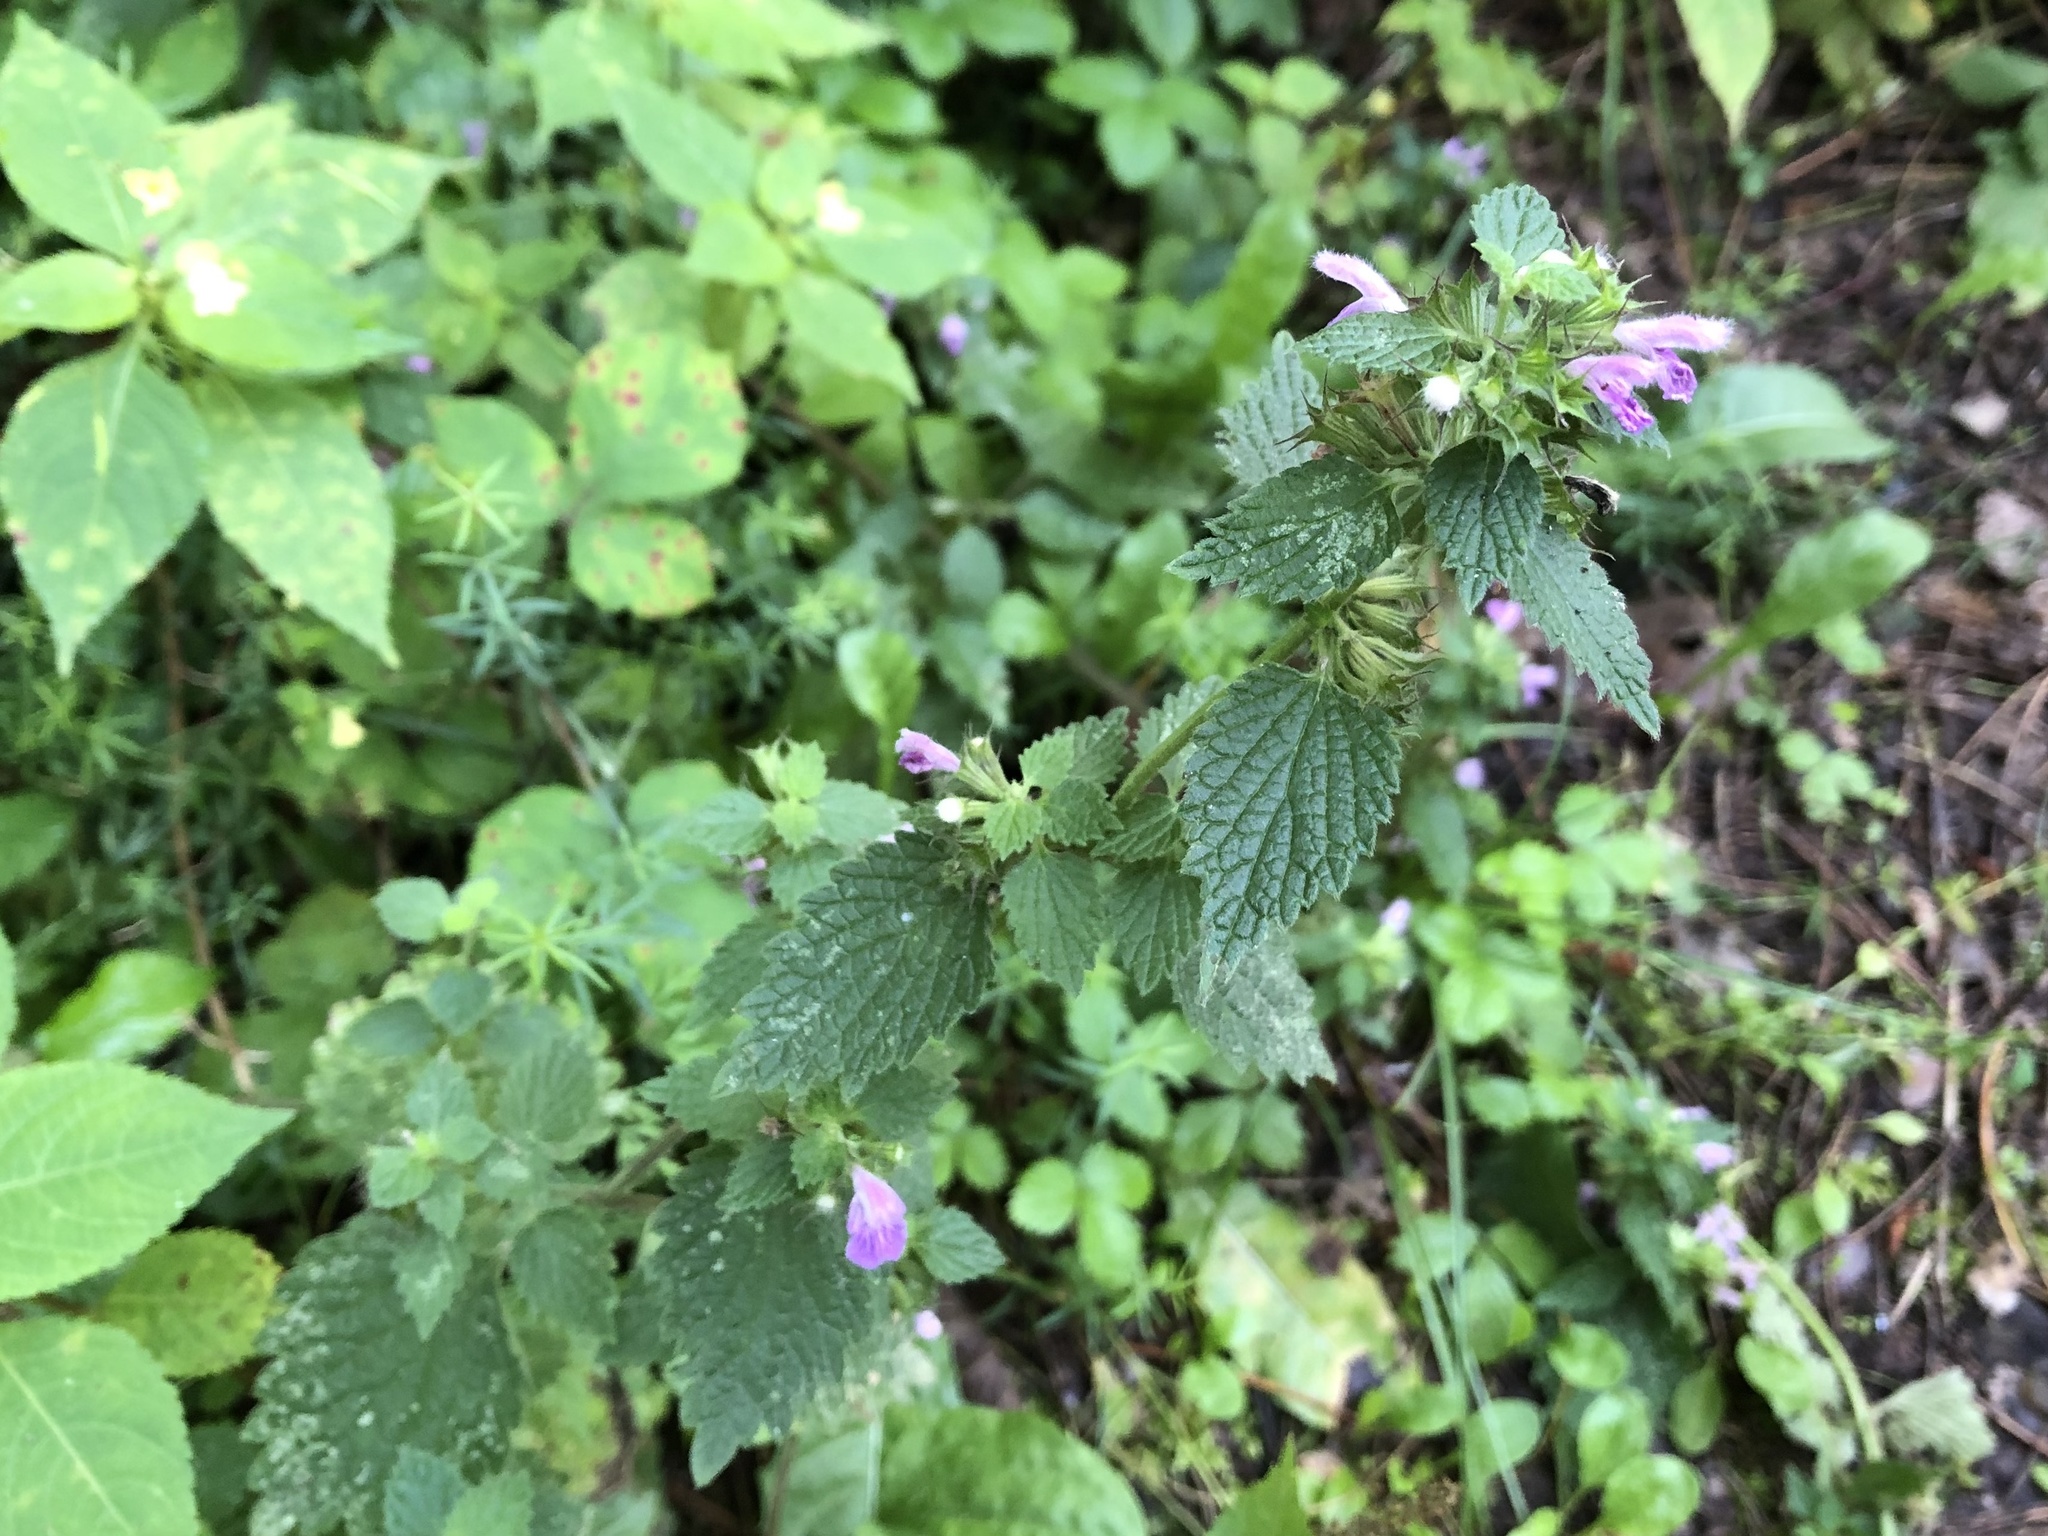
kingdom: Plantae
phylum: Tracheophyta
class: Magnoliopsida
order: Lamiales
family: Lamiaceae
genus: Ballota
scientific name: Ballota nigra
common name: Black horehound
